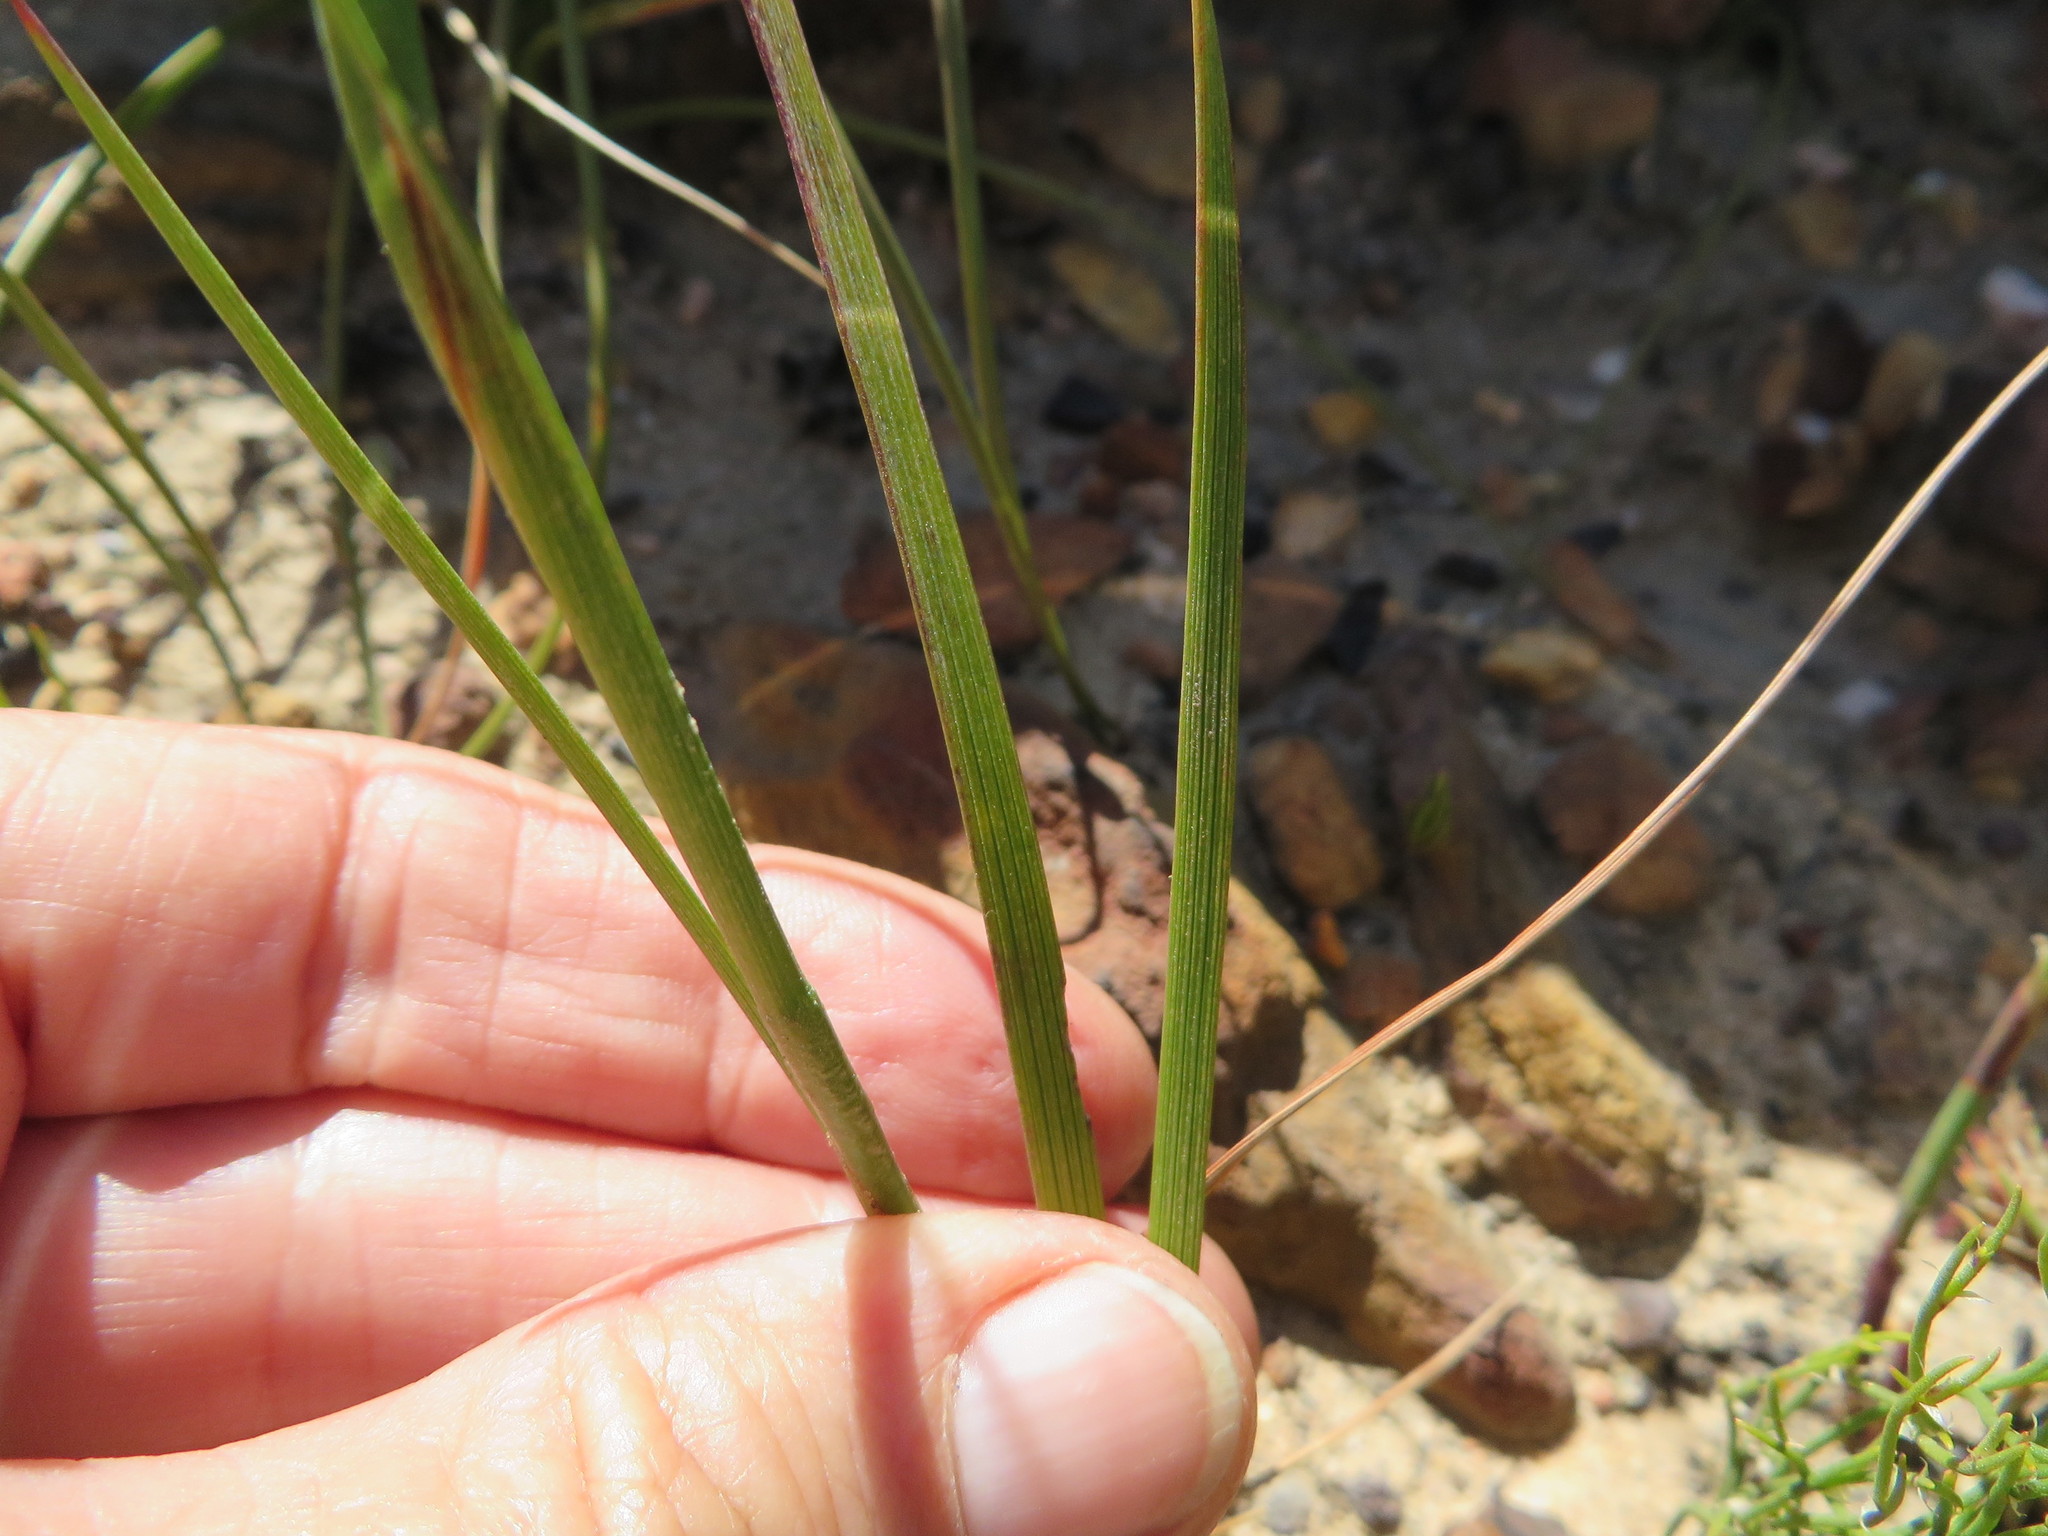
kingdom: Plantae
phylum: Tracheophyta
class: Liliopsida
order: Asparagales
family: Iridaceae
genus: Thereianthus
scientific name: Thereianthus spicatus
